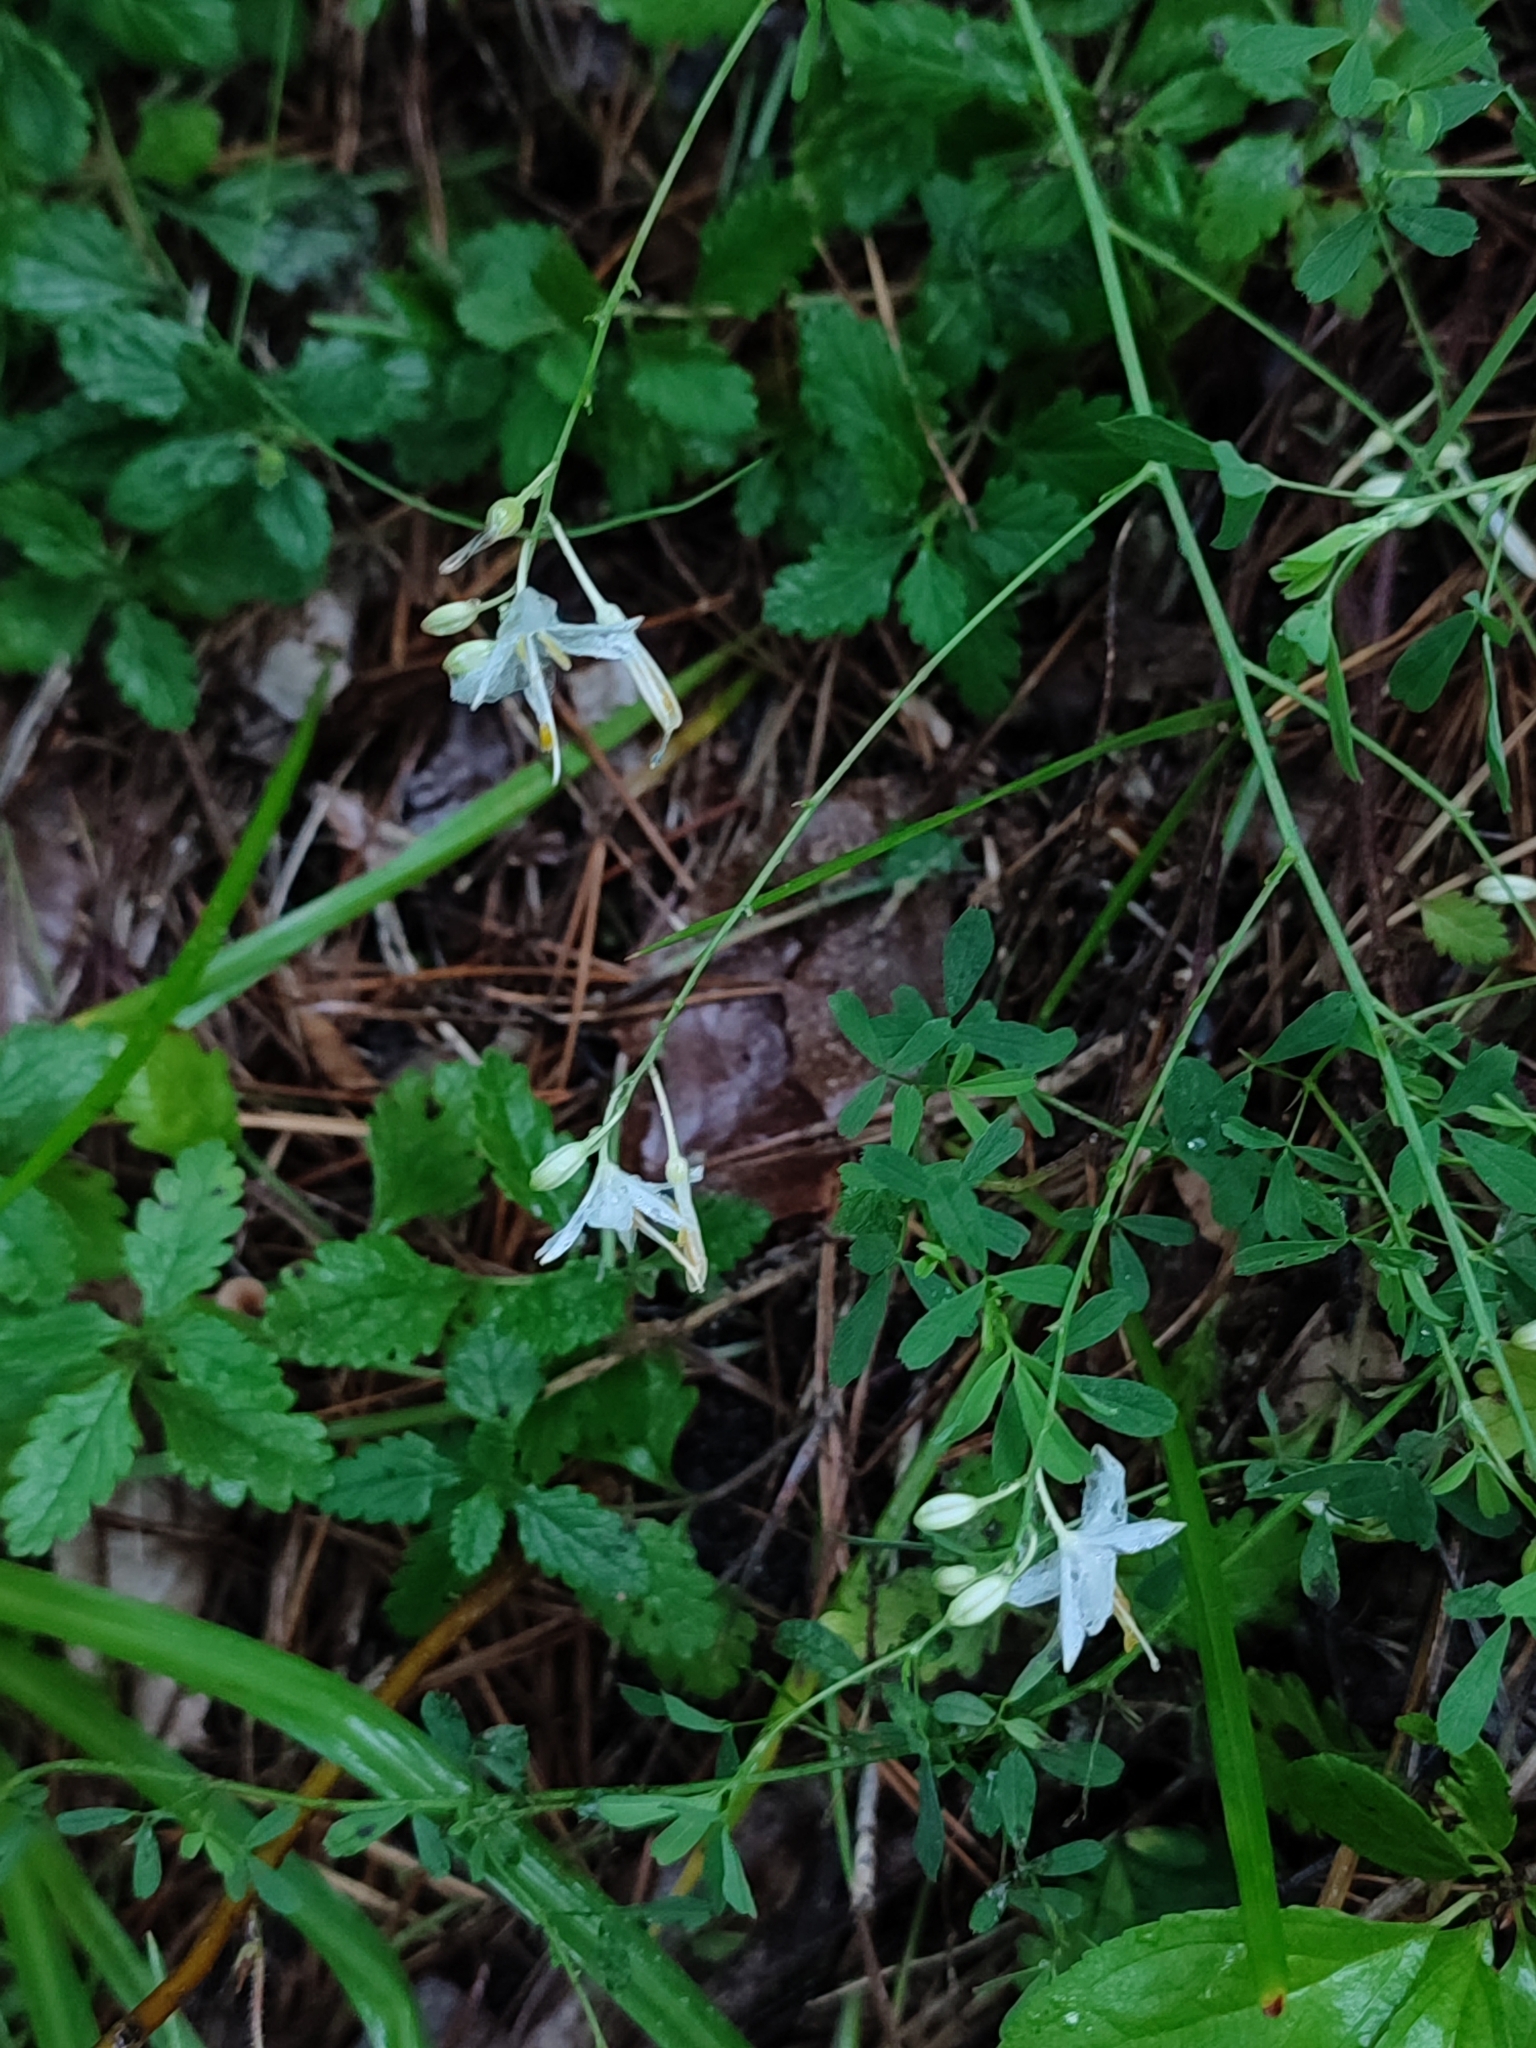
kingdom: Plantae
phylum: Tracheophyta
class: Liliopsida
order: Asparagales
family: Asparagaceae
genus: Anthericum
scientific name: Anthericum ramosum
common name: Branched st. bernard's-lily
